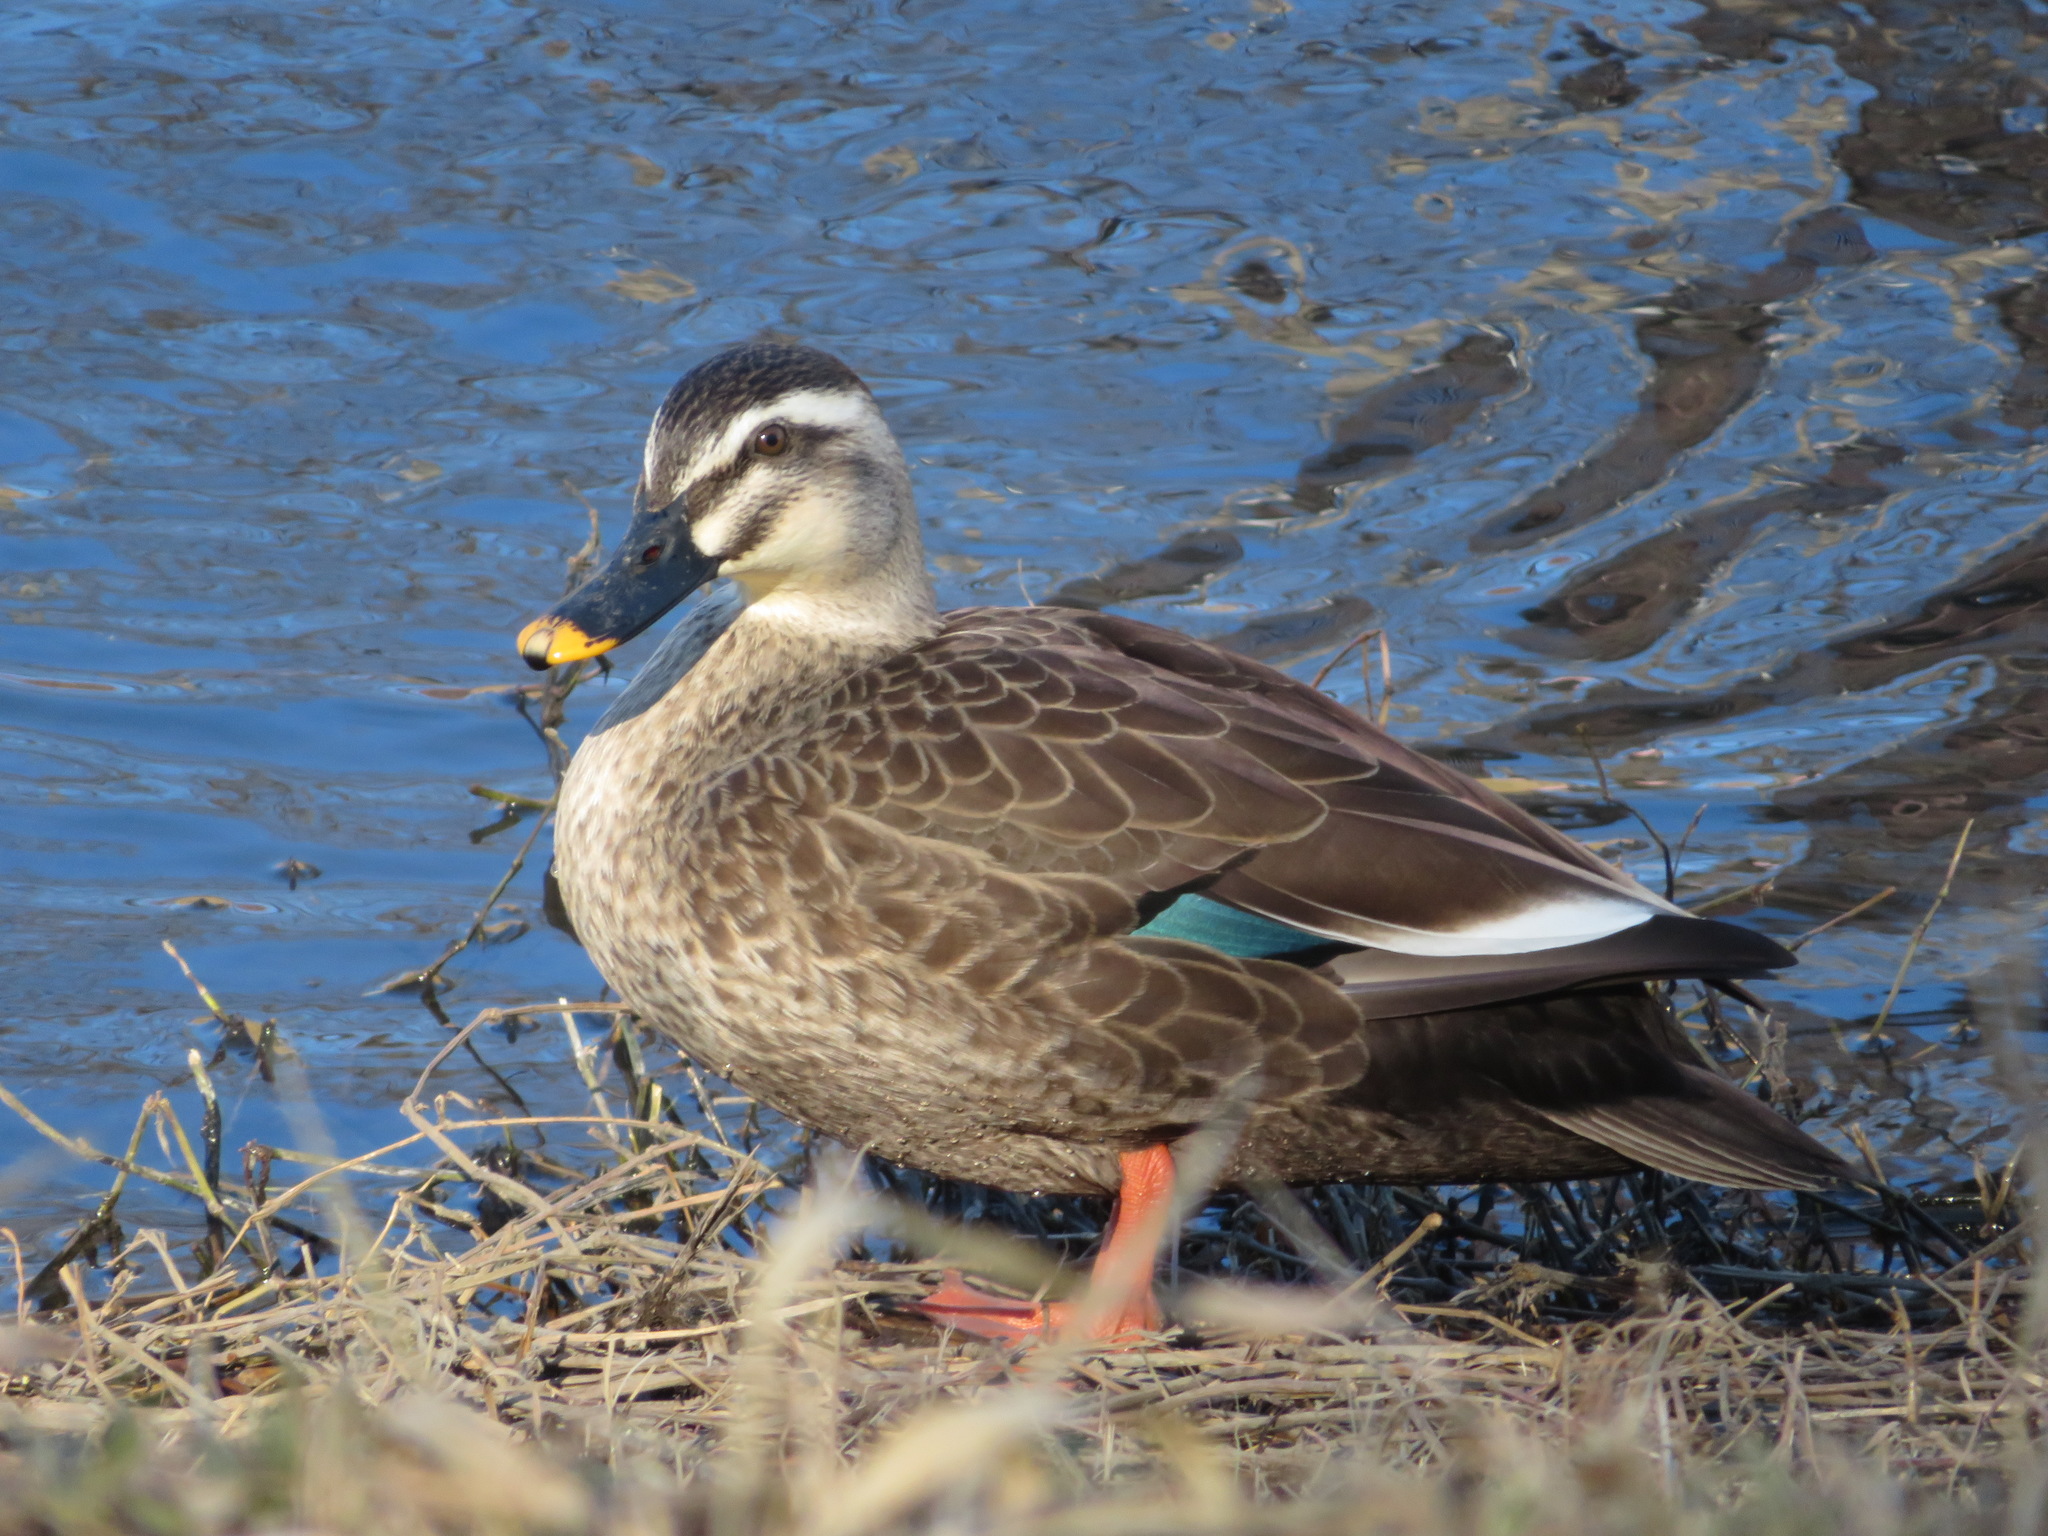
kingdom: Animalia
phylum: Chordata
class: Aves
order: Anseriformes
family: Anatidae
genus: Anas
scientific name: Anas zonorhyncha
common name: Eastern spot-billed duck
